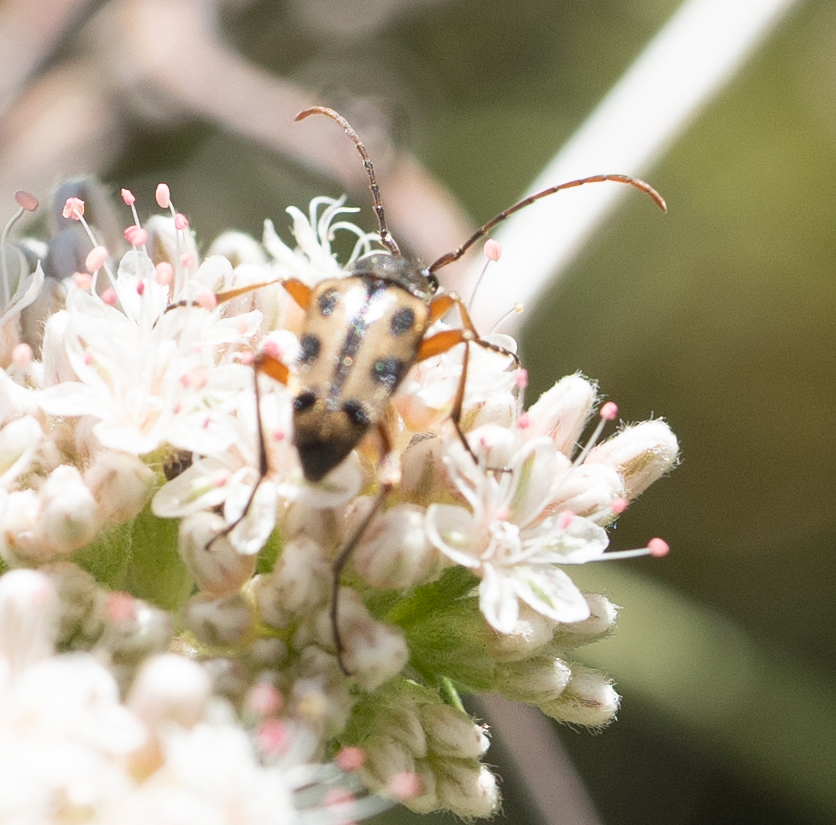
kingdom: Animalia
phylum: Arthropoda
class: Insecta
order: Coleoptera
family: Cerambycidae
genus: Judolia
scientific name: Judolia sexspilota
